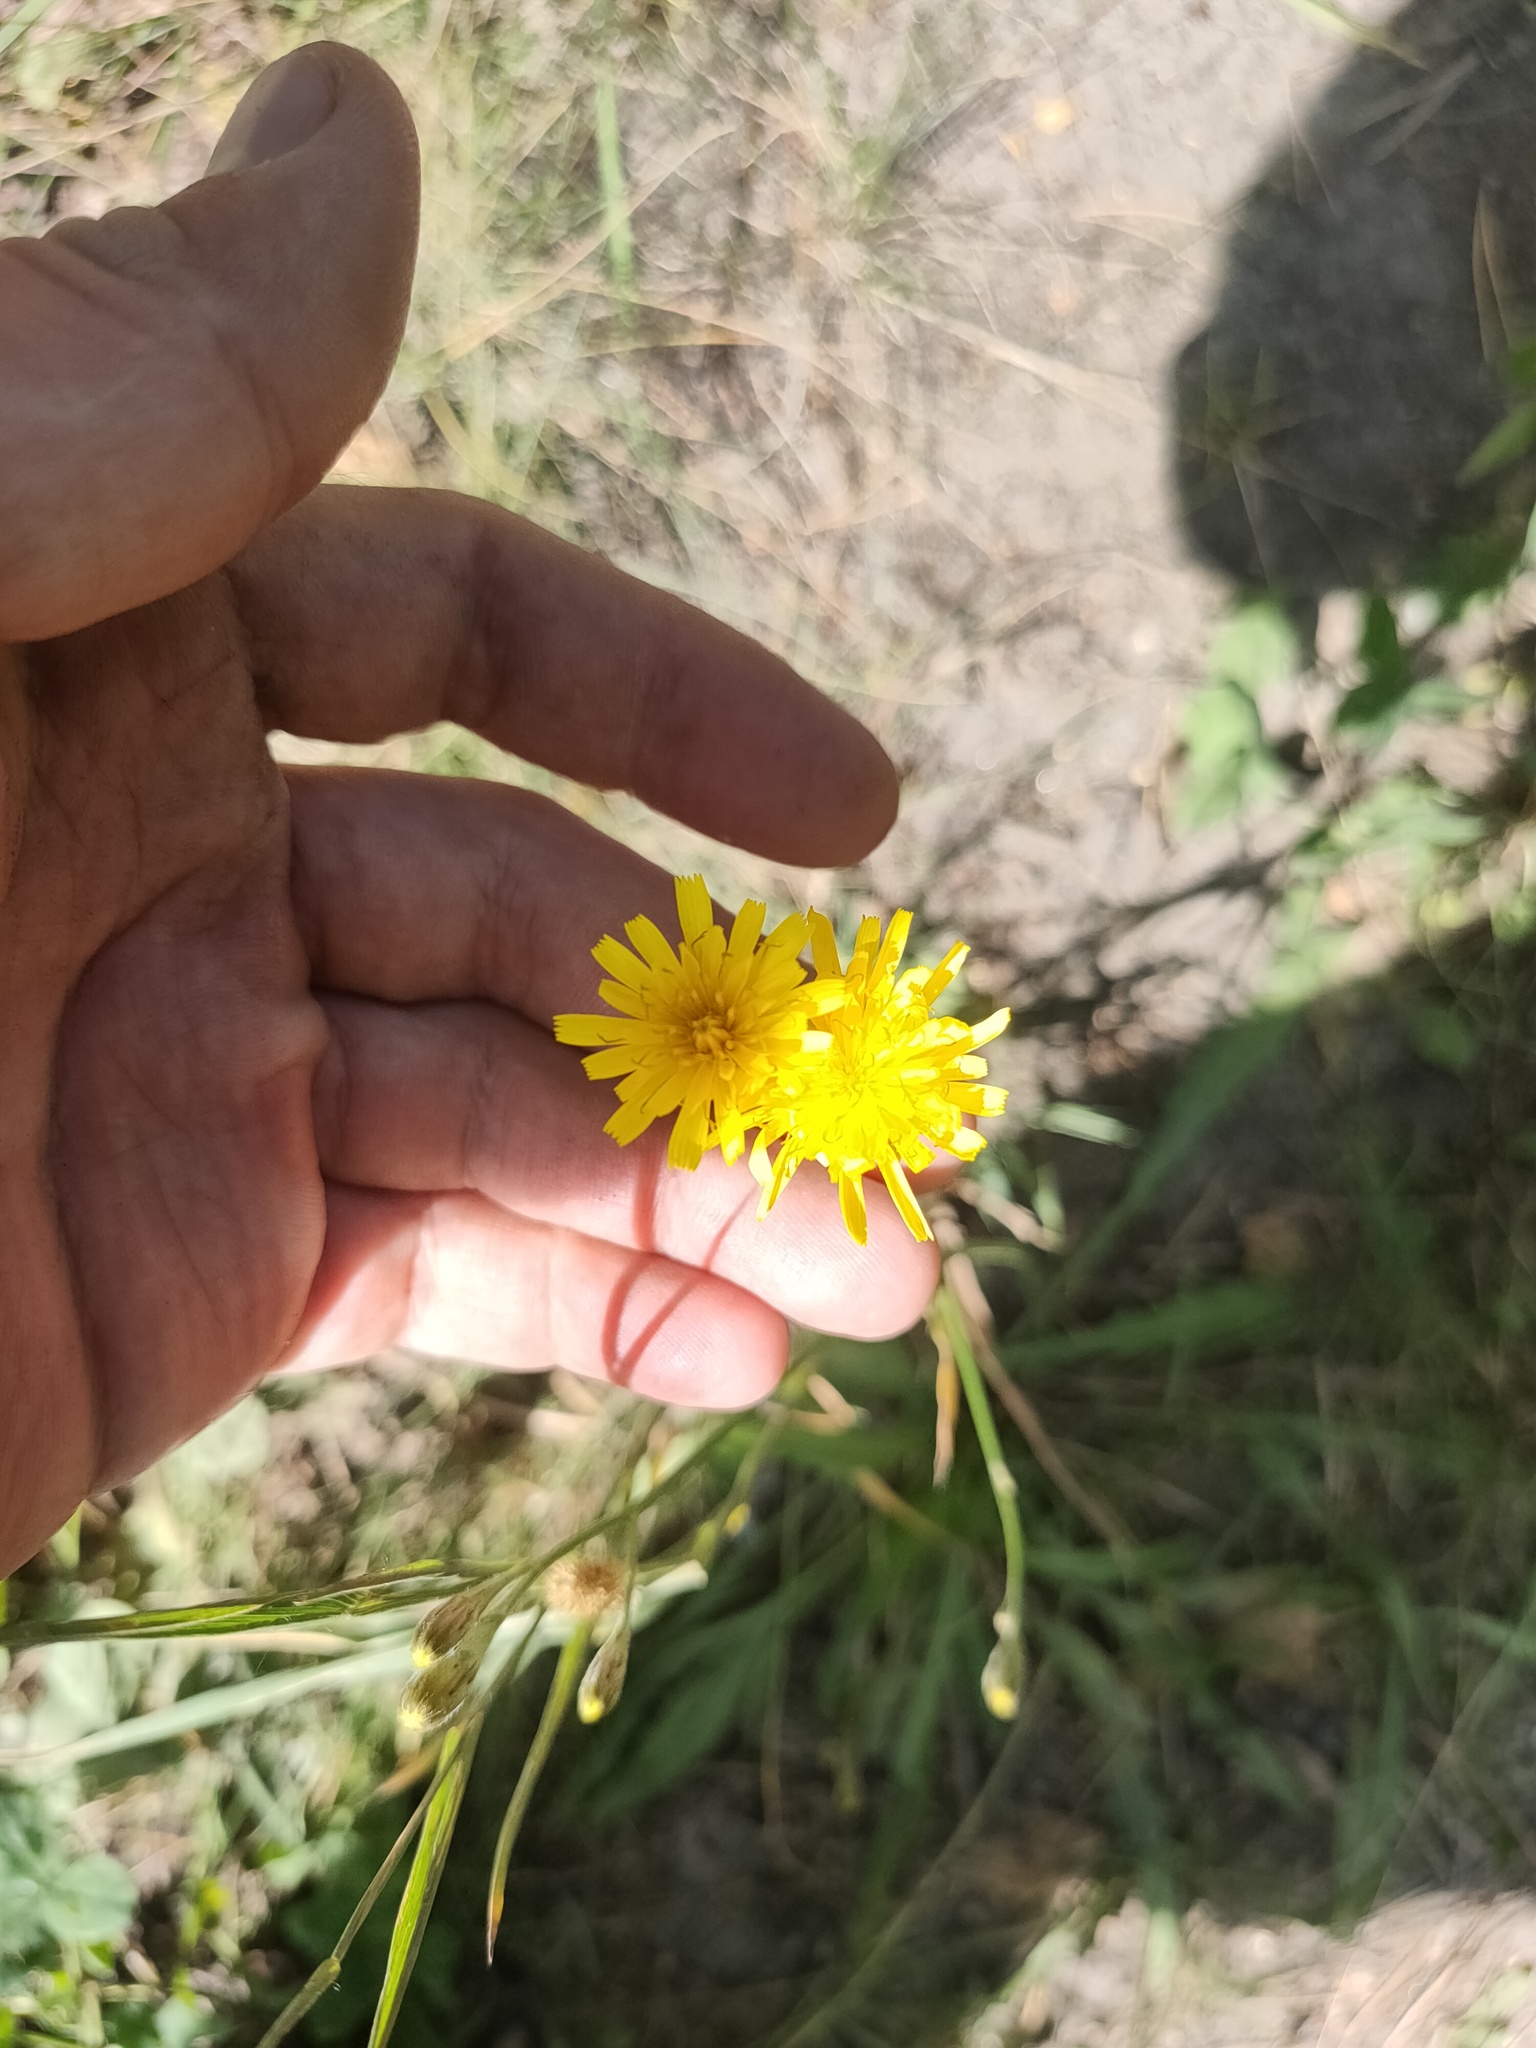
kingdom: Plantae
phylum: Tracheophyta
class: Magnoliopsida
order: Asterales
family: Asteraceae
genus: Scorzoneroides
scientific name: Scorzoneroides autumnalis
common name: Autumn hawkbit
